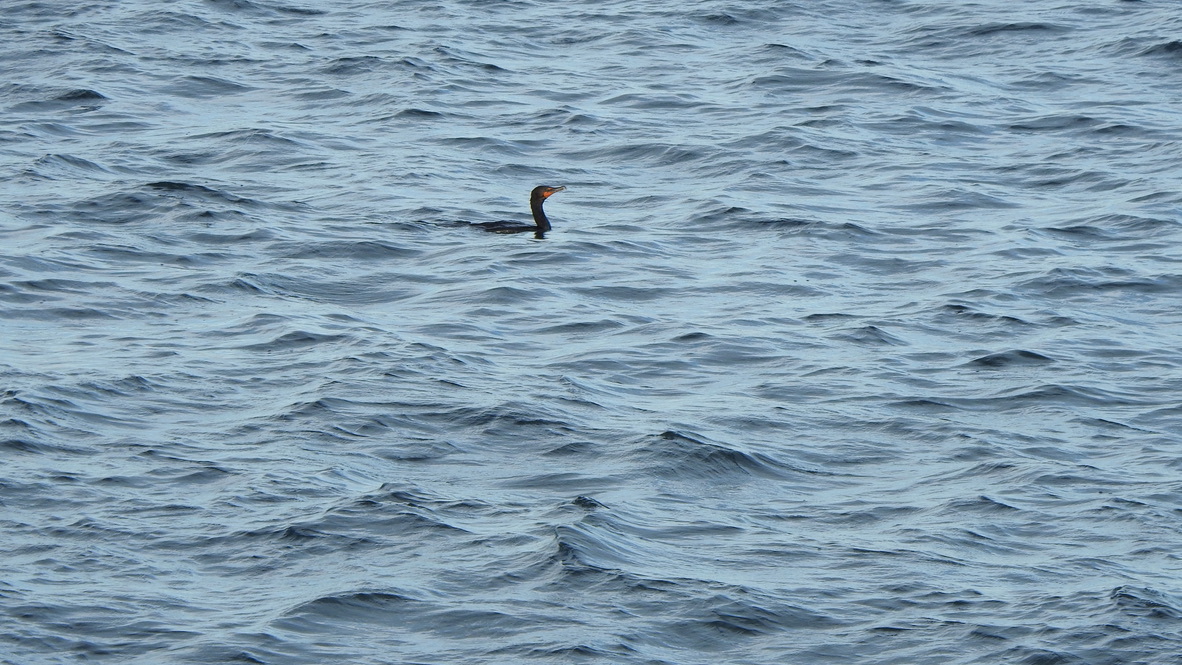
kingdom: Animalia
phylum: Chordata
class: Aves
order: Suliformes
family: Phalacrocoracidae
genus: Phalacrocorax
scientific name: Phalacrocorax auritus
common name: Double-crested cormorant
